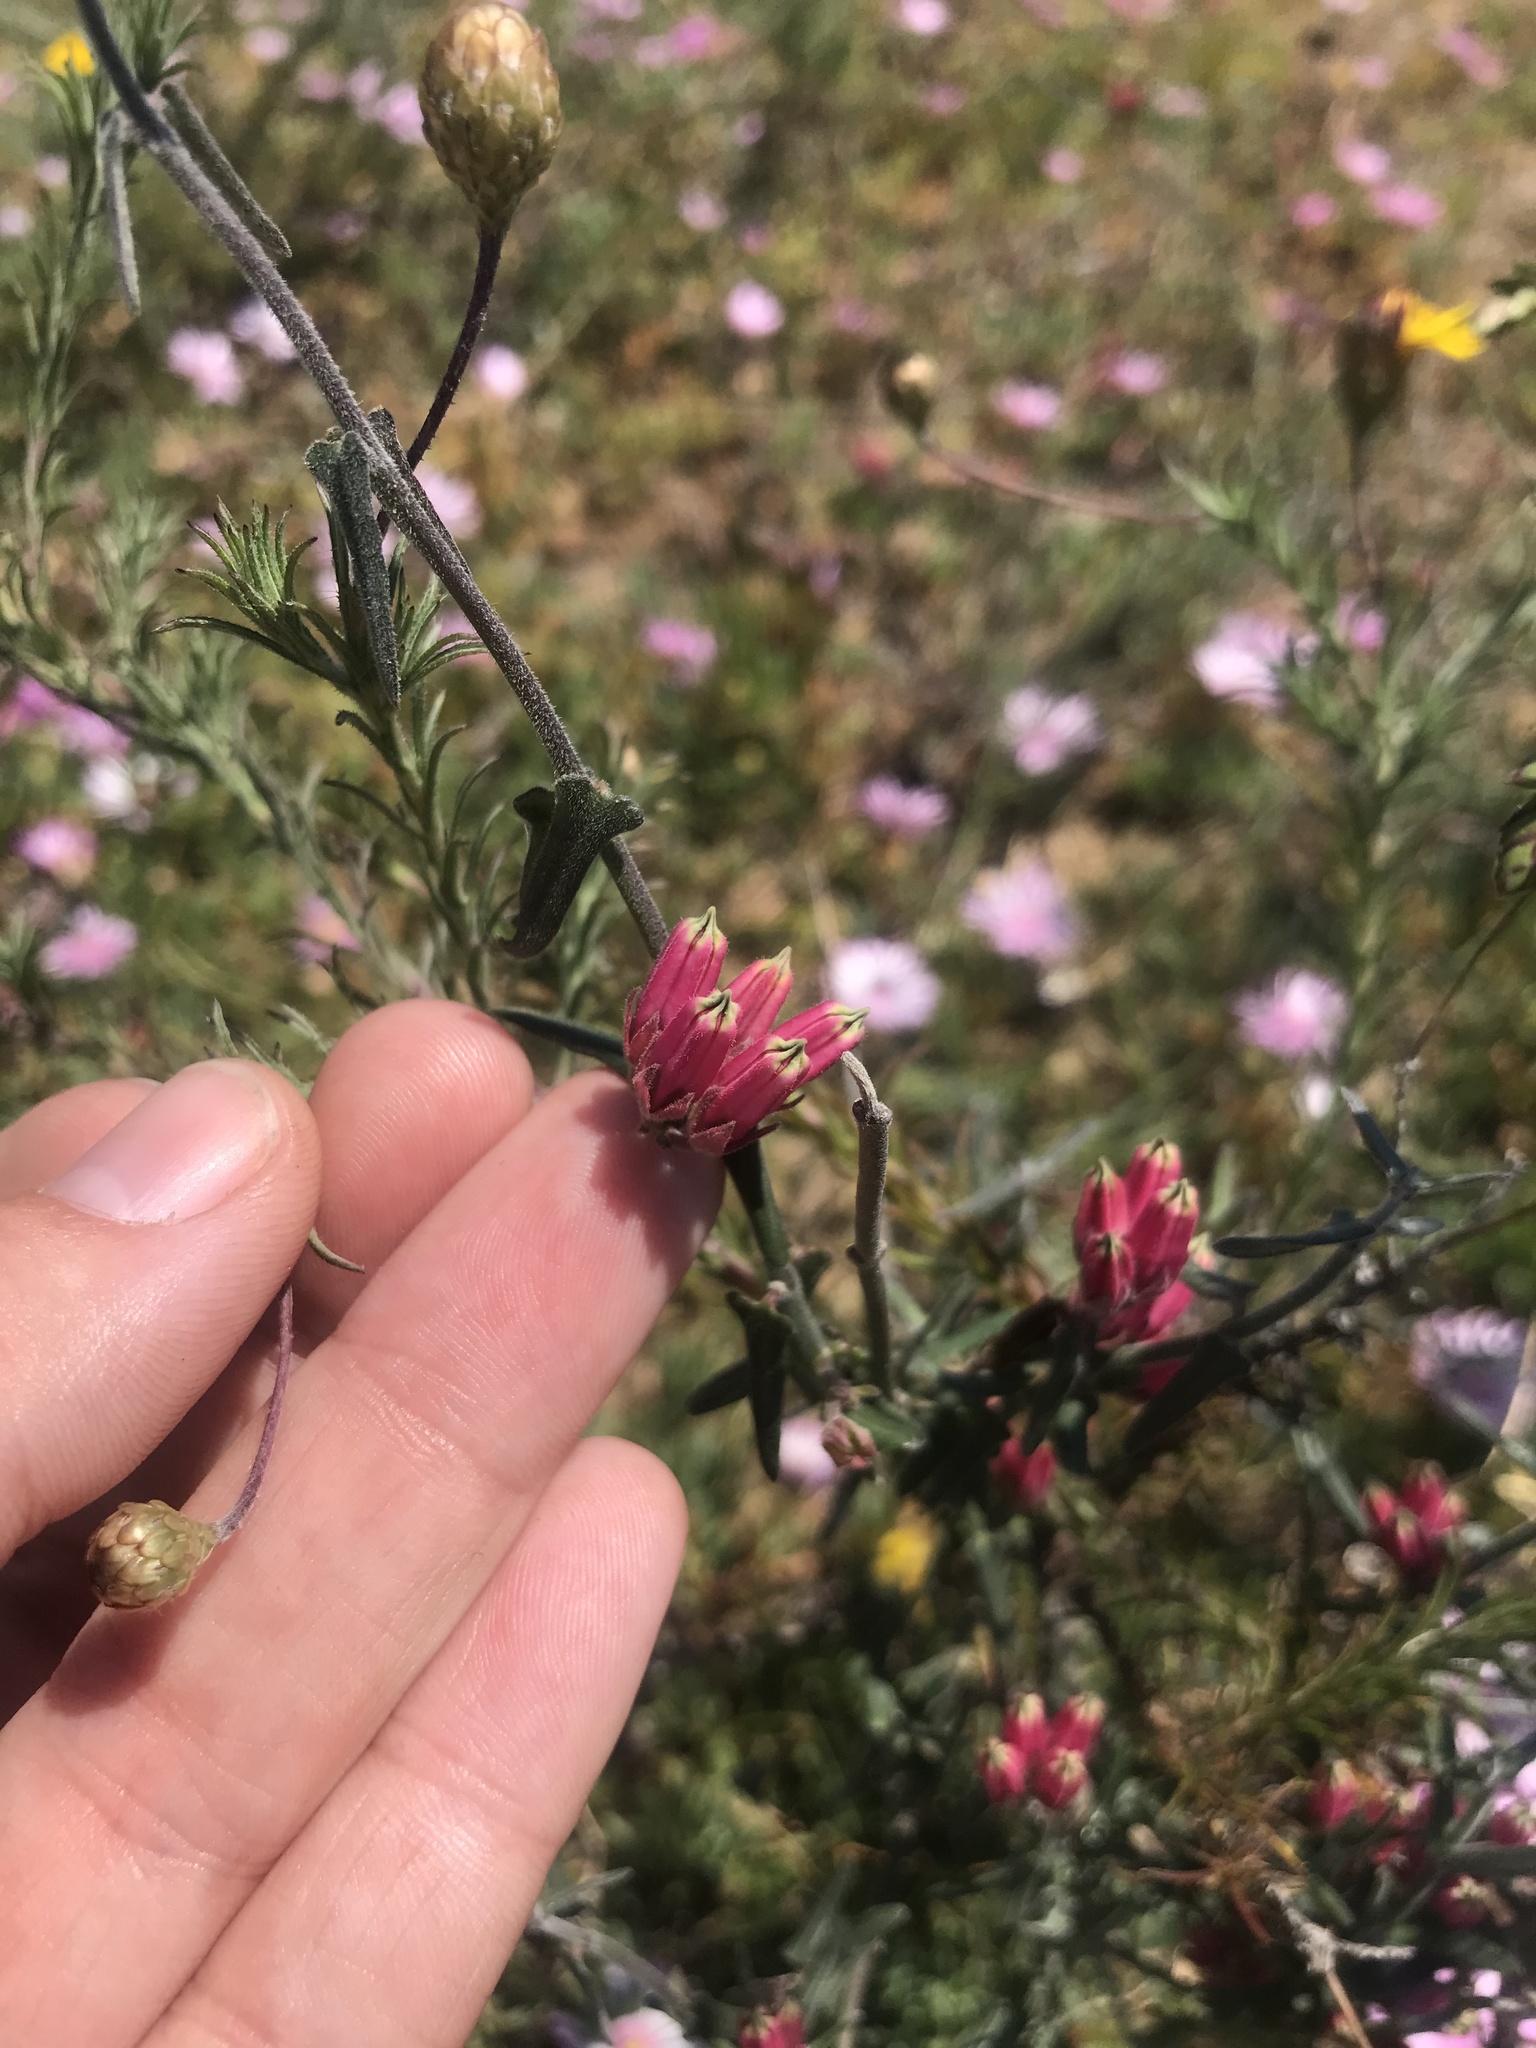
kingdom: Plantae
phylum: Tracheophyta
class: Magnoliopsida
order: Gentianales
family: Apocynaceae
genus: Microloma
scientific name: Microloma sagittatum
